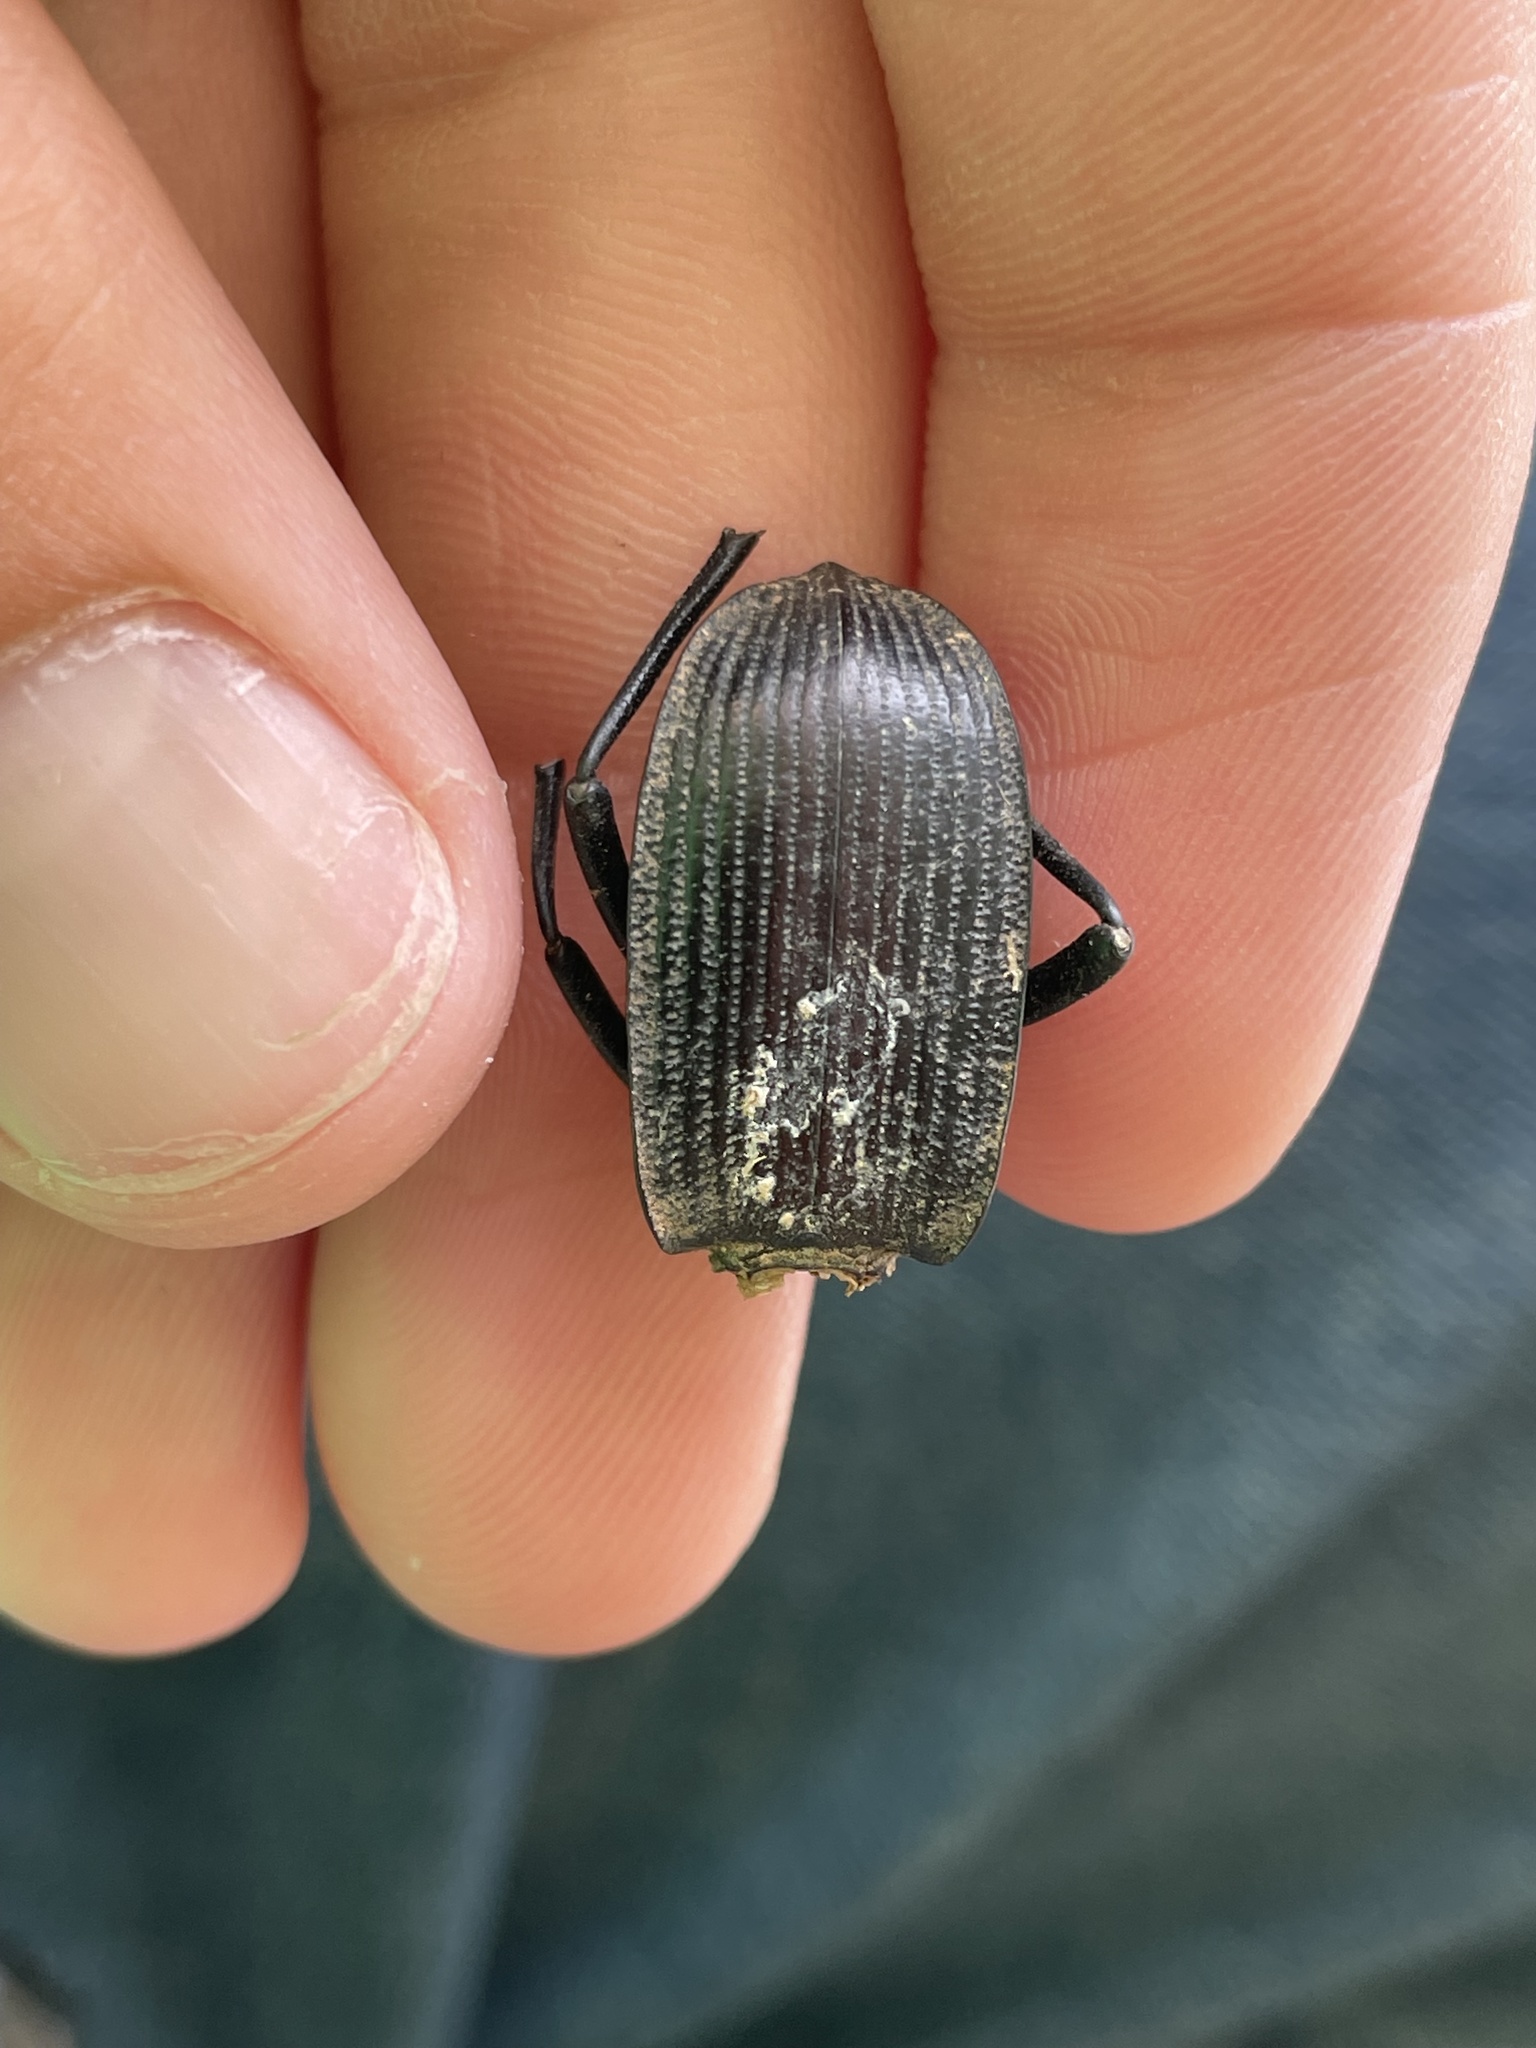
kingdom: Animalia
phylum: Arthropoda
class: Insecta
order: Coleoptera
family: Tenebrionidae
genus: Eleodes
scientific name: Eleodes suturalis
